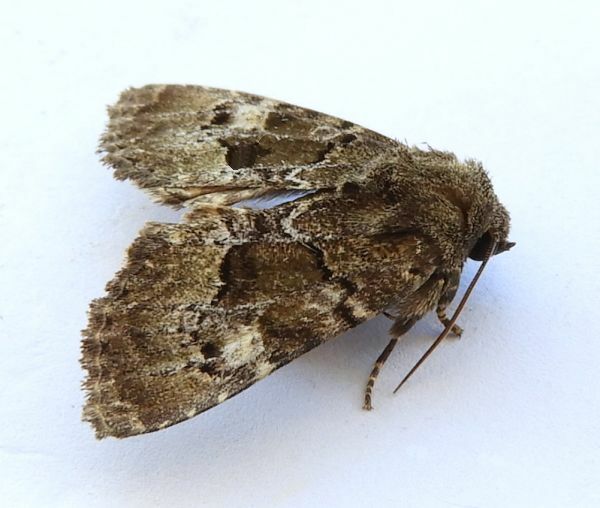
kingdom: Animalia
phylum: Arthropoda
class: Insecta
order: Lepidoptera
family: Noctuidae
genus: Euamiana
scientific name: Euamiana dissimilis
